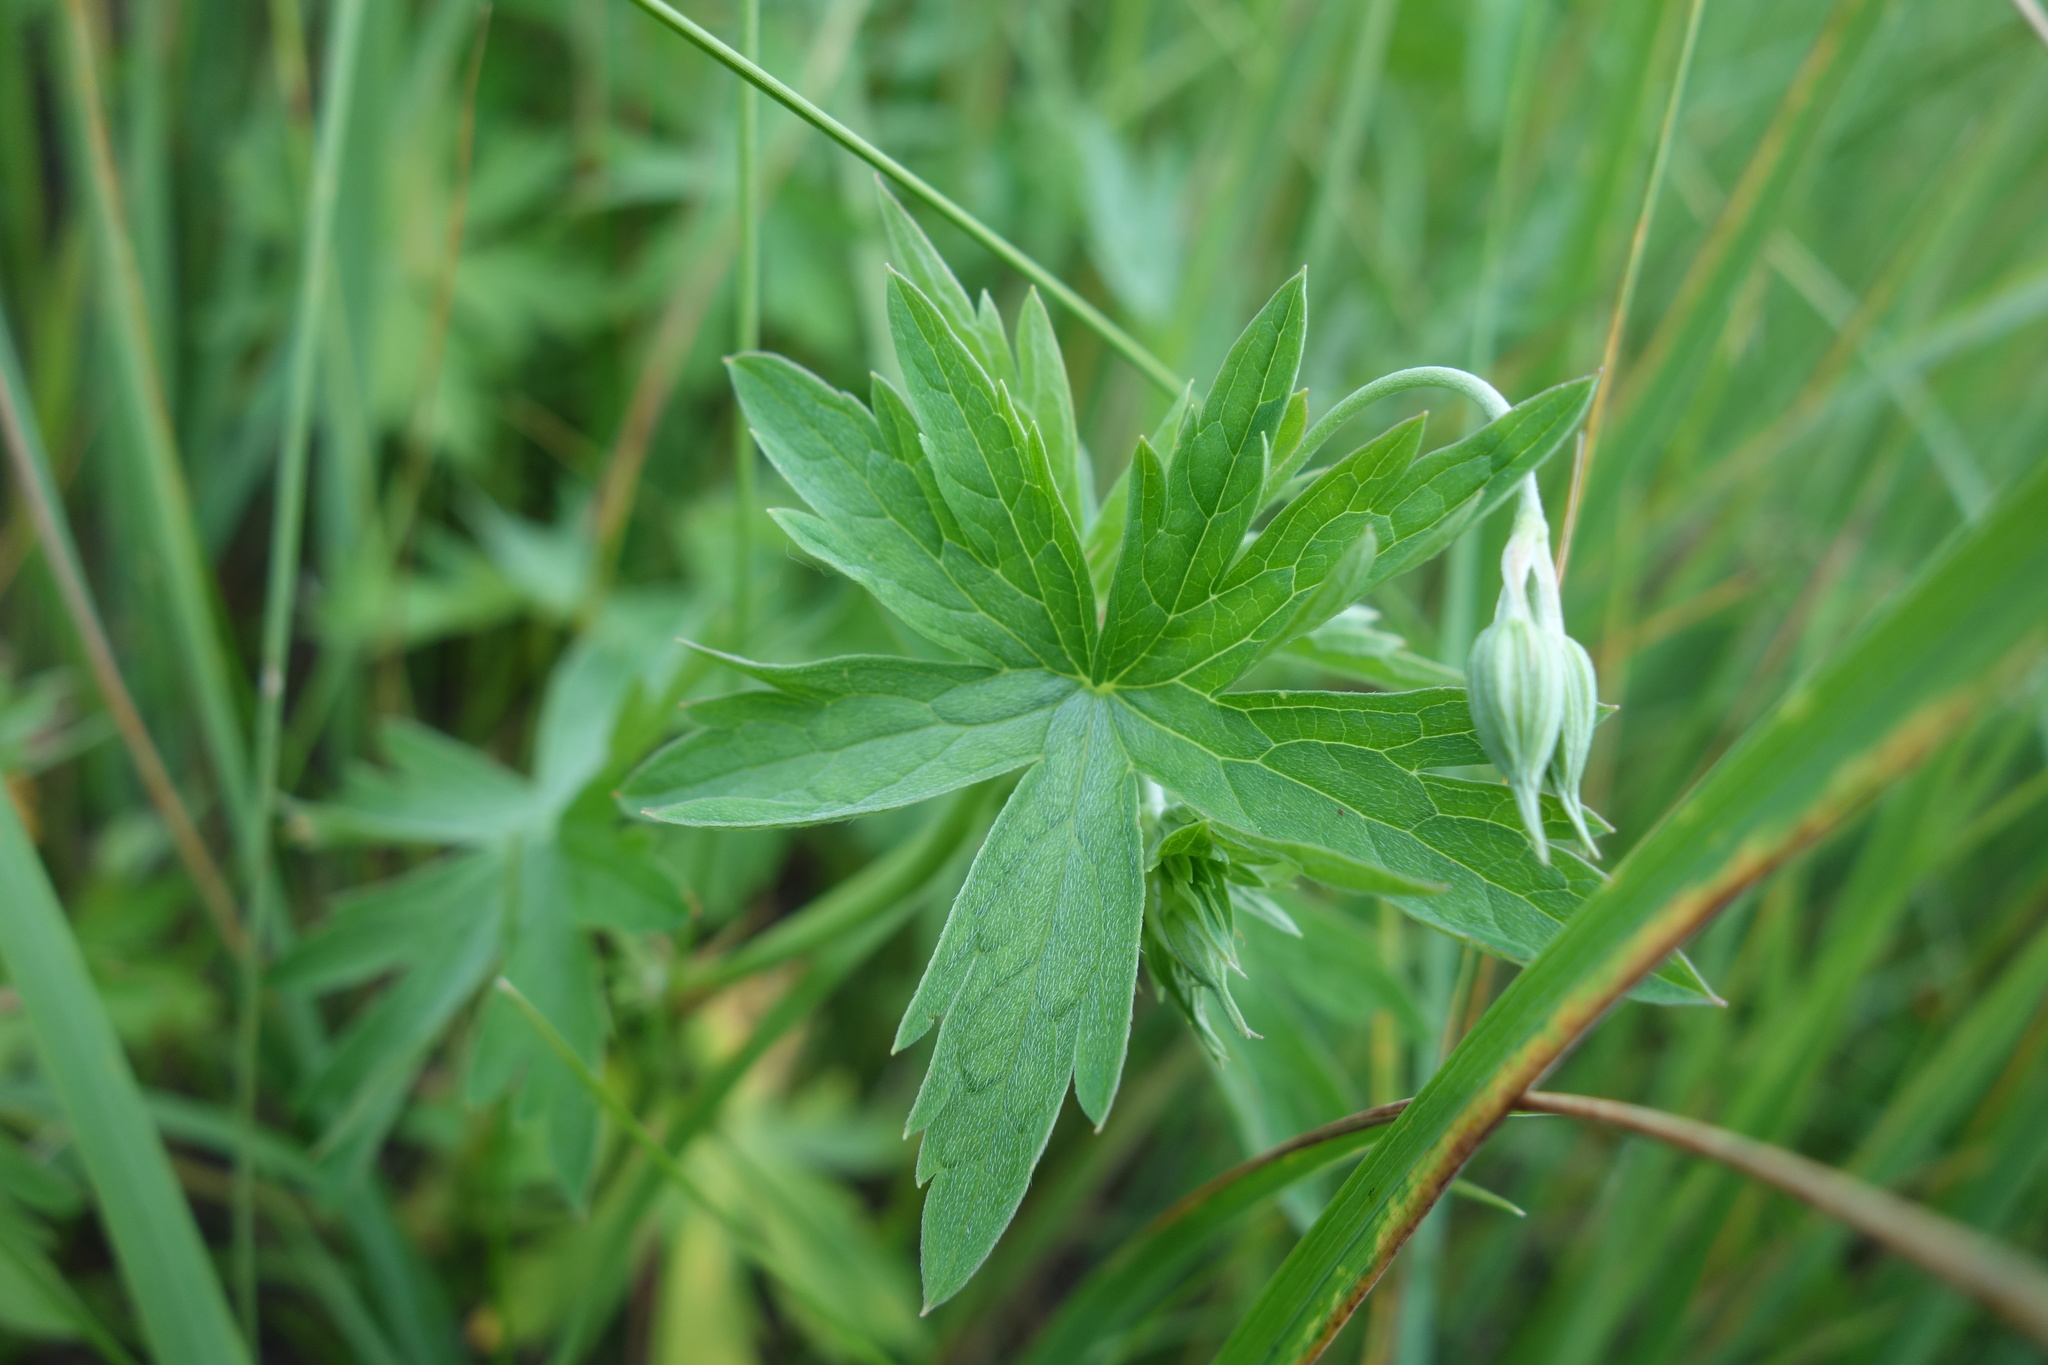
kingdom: Plantae
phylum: Tracheophyta
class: Magnoliopsida
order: Geraniales
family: Geraniaceae
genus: Geranium
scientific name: Geranium collinum
